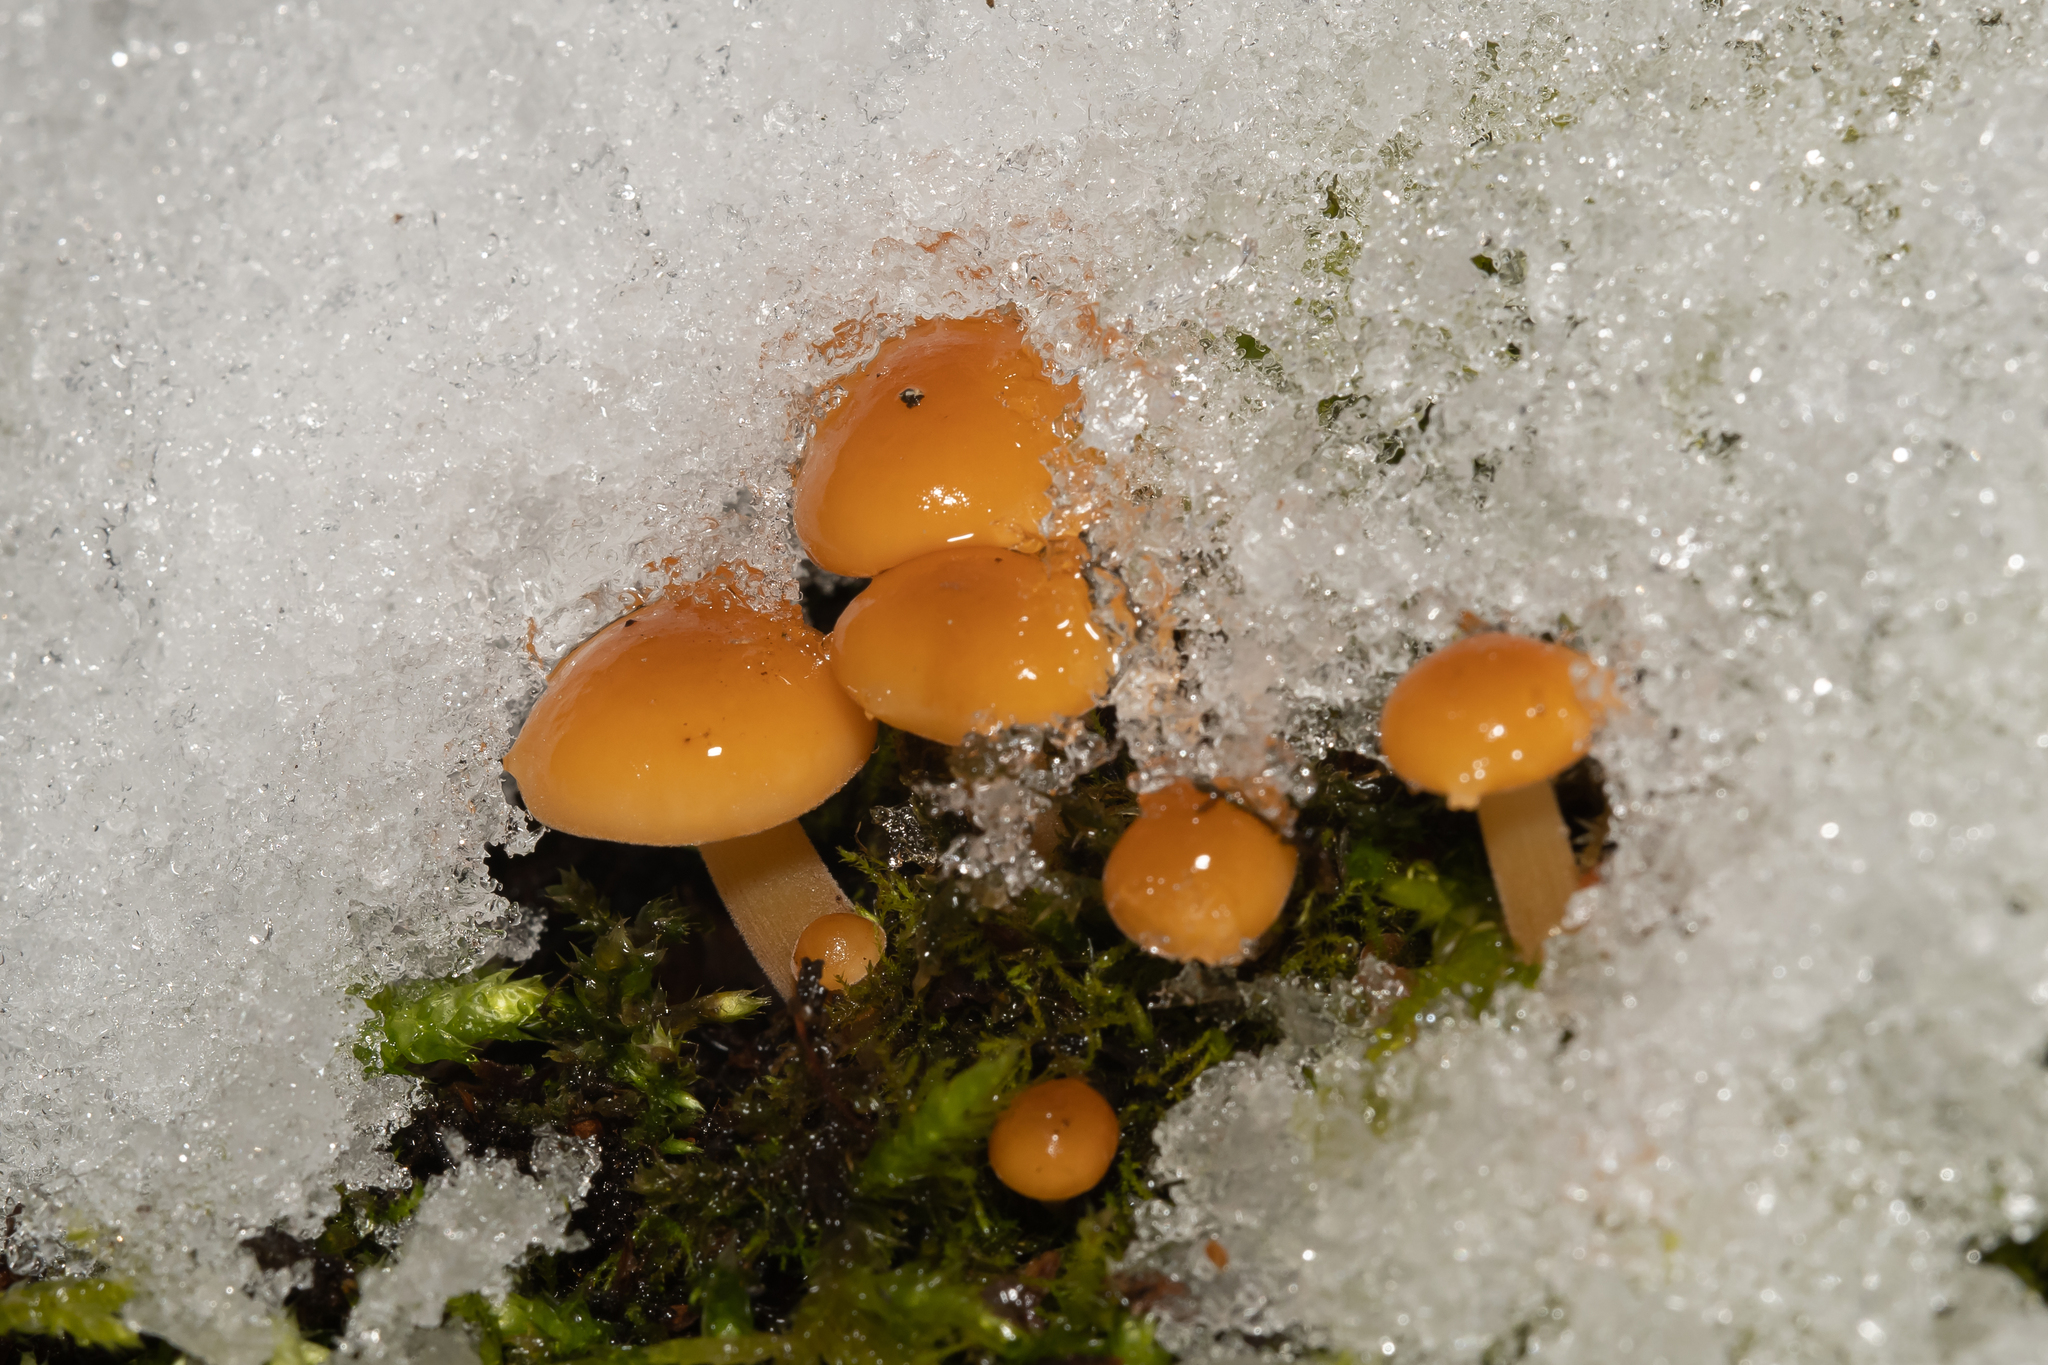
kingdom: Fungi
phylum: Basidiomycota
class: Agaricomycetes
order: Agaricales
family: Physalacriaceae
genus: Flammulina
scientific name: Flammulina
